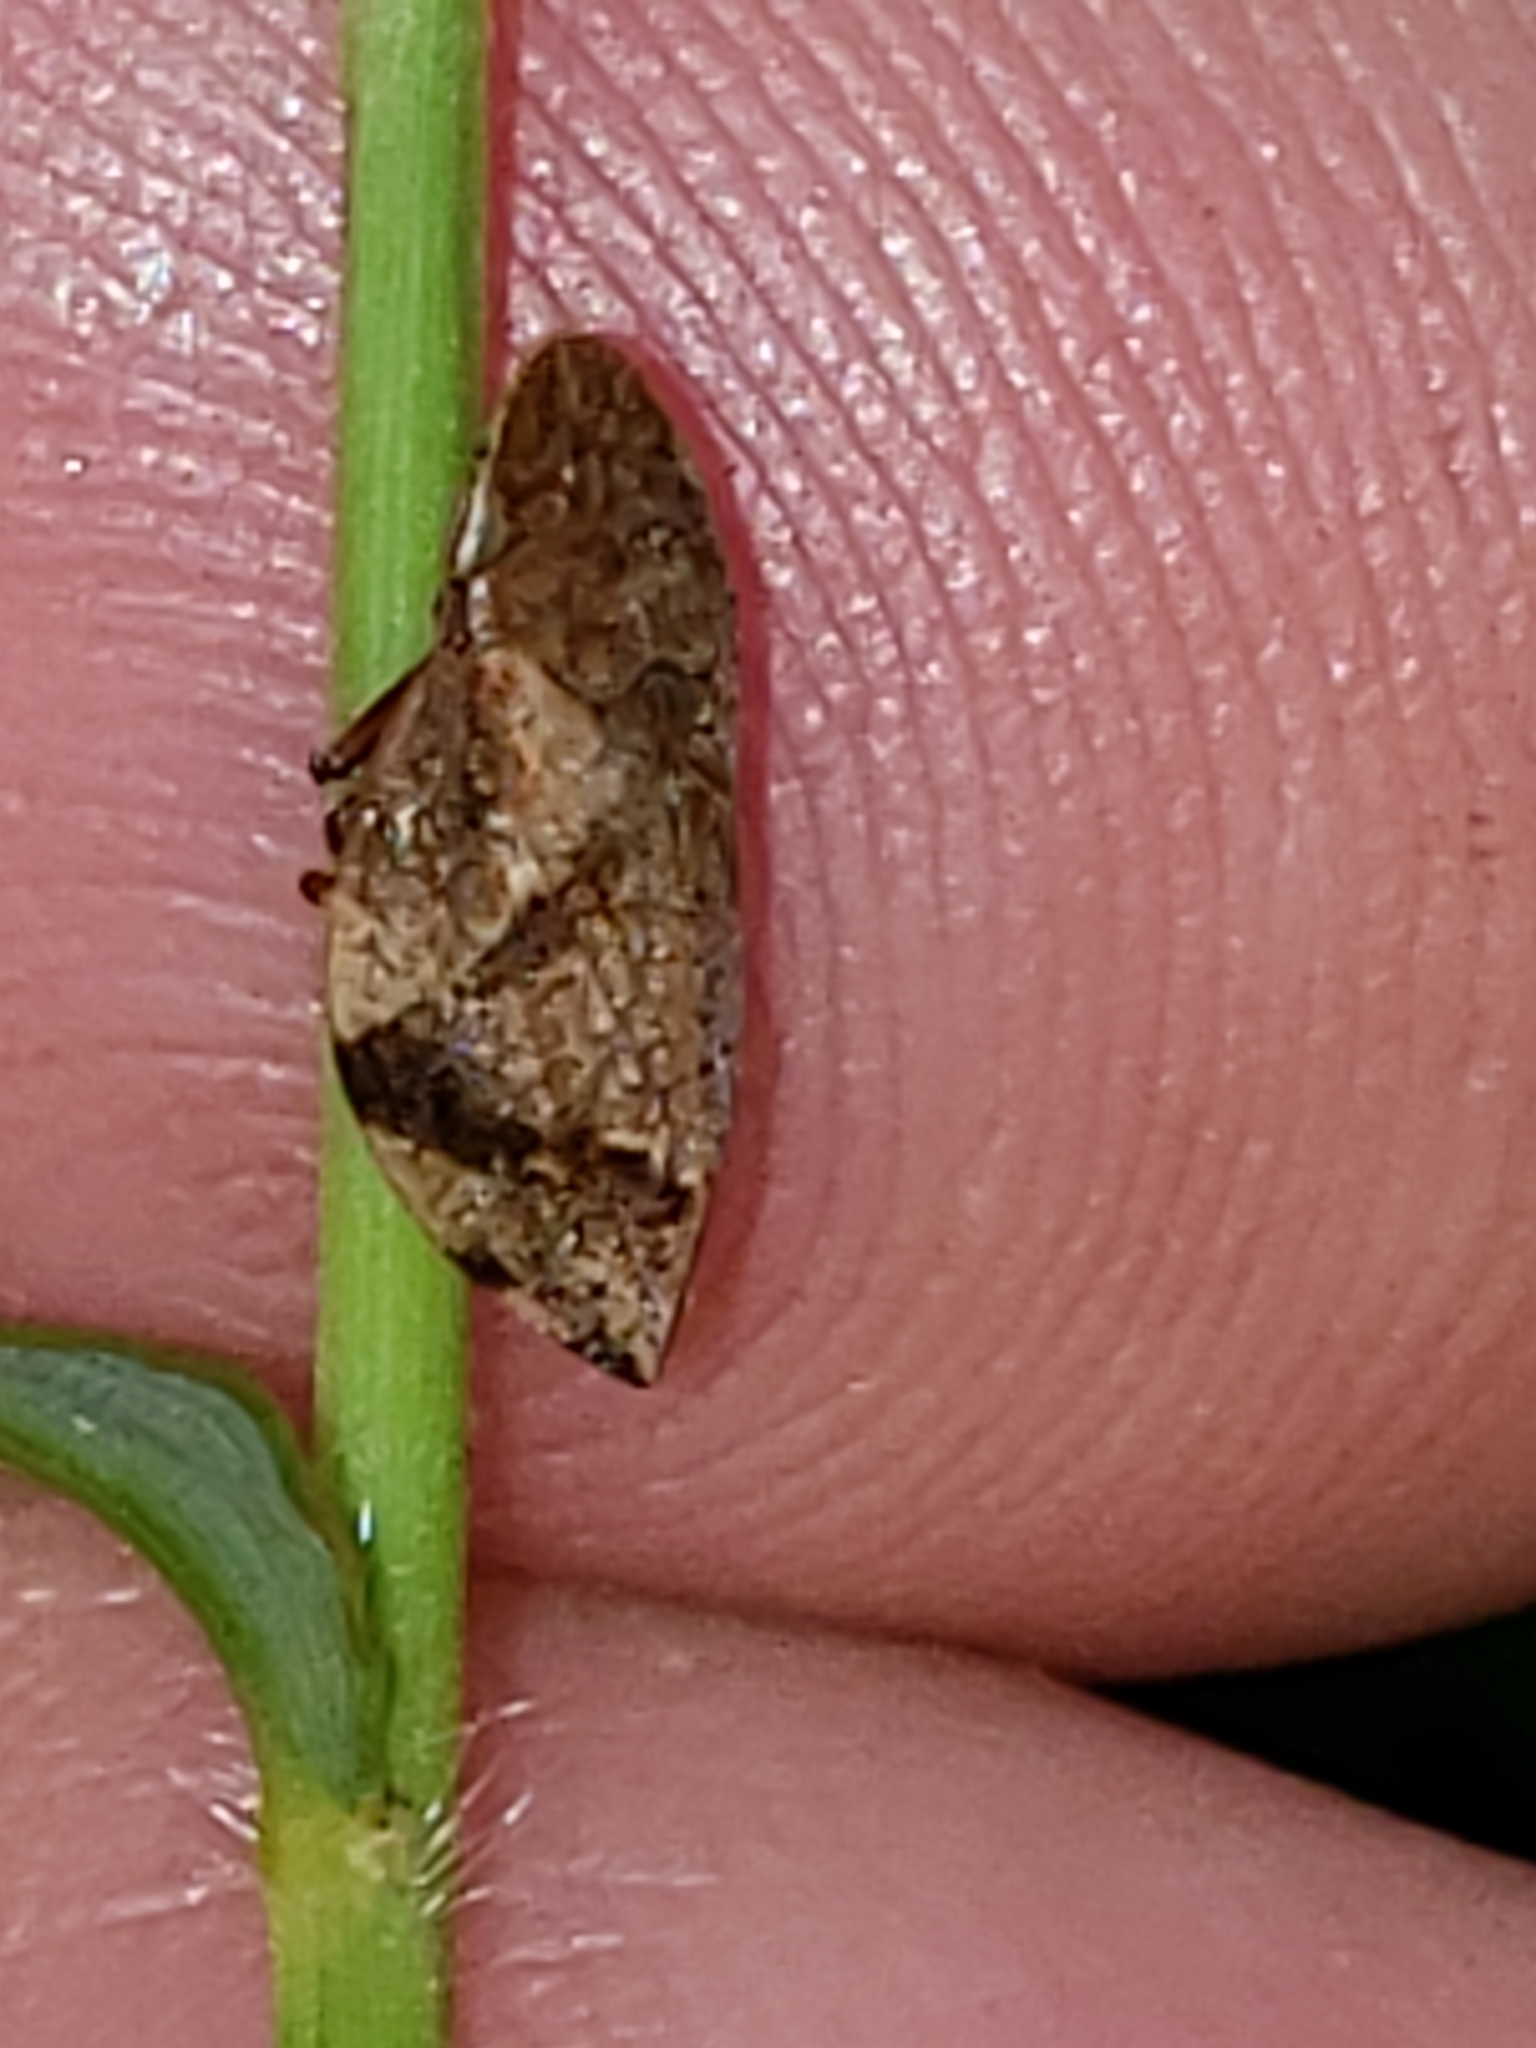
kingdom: Animalia
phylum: Arthropoda
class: Insecta
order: Hemiptera
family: Aphrophoridae
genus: Lepyronia
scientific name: Lepyronia quadrangularis
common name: Diamond-backed spittlebug
